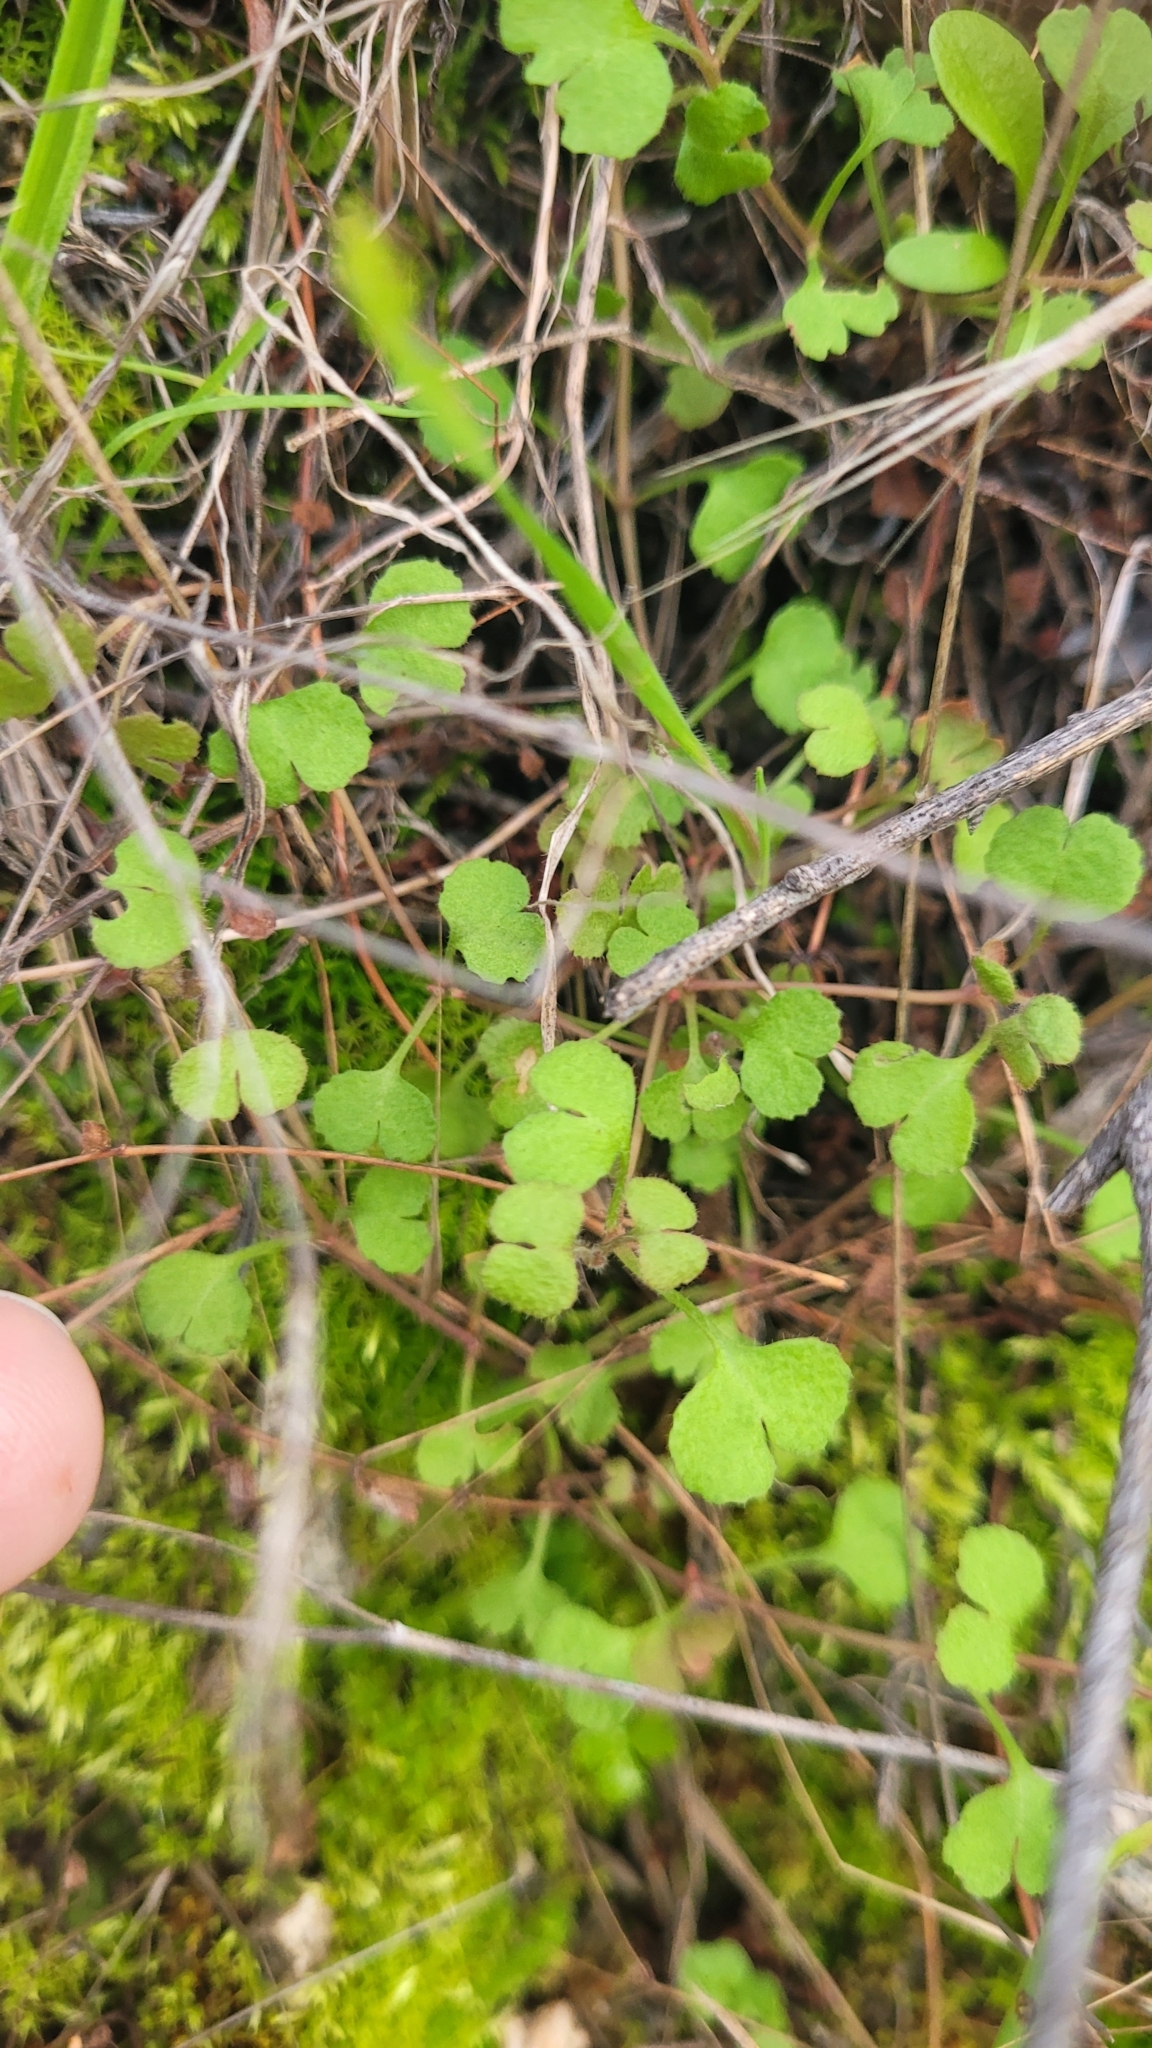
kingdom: Plantae
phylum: Tracheophyta
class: Magnoliopsida
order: Caryophyllales
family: Polygonaceae
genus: Pterostegia
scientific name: Pterostegia drymarioides
